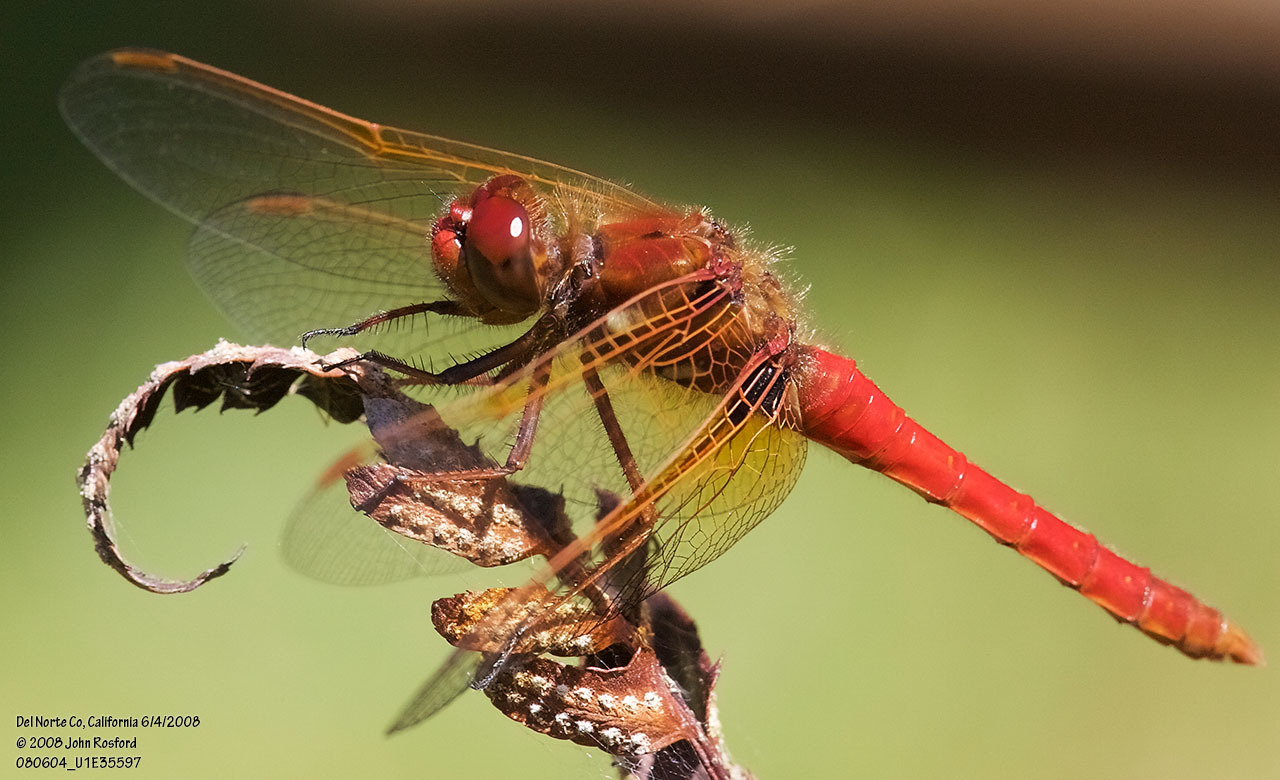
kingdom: Animalia
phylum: Arthropoda
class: Insecta
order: Odonata
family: Libellulidae
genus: Sympetrum
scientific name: Sympetrum illotum
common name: Cardinal meadowhawk
